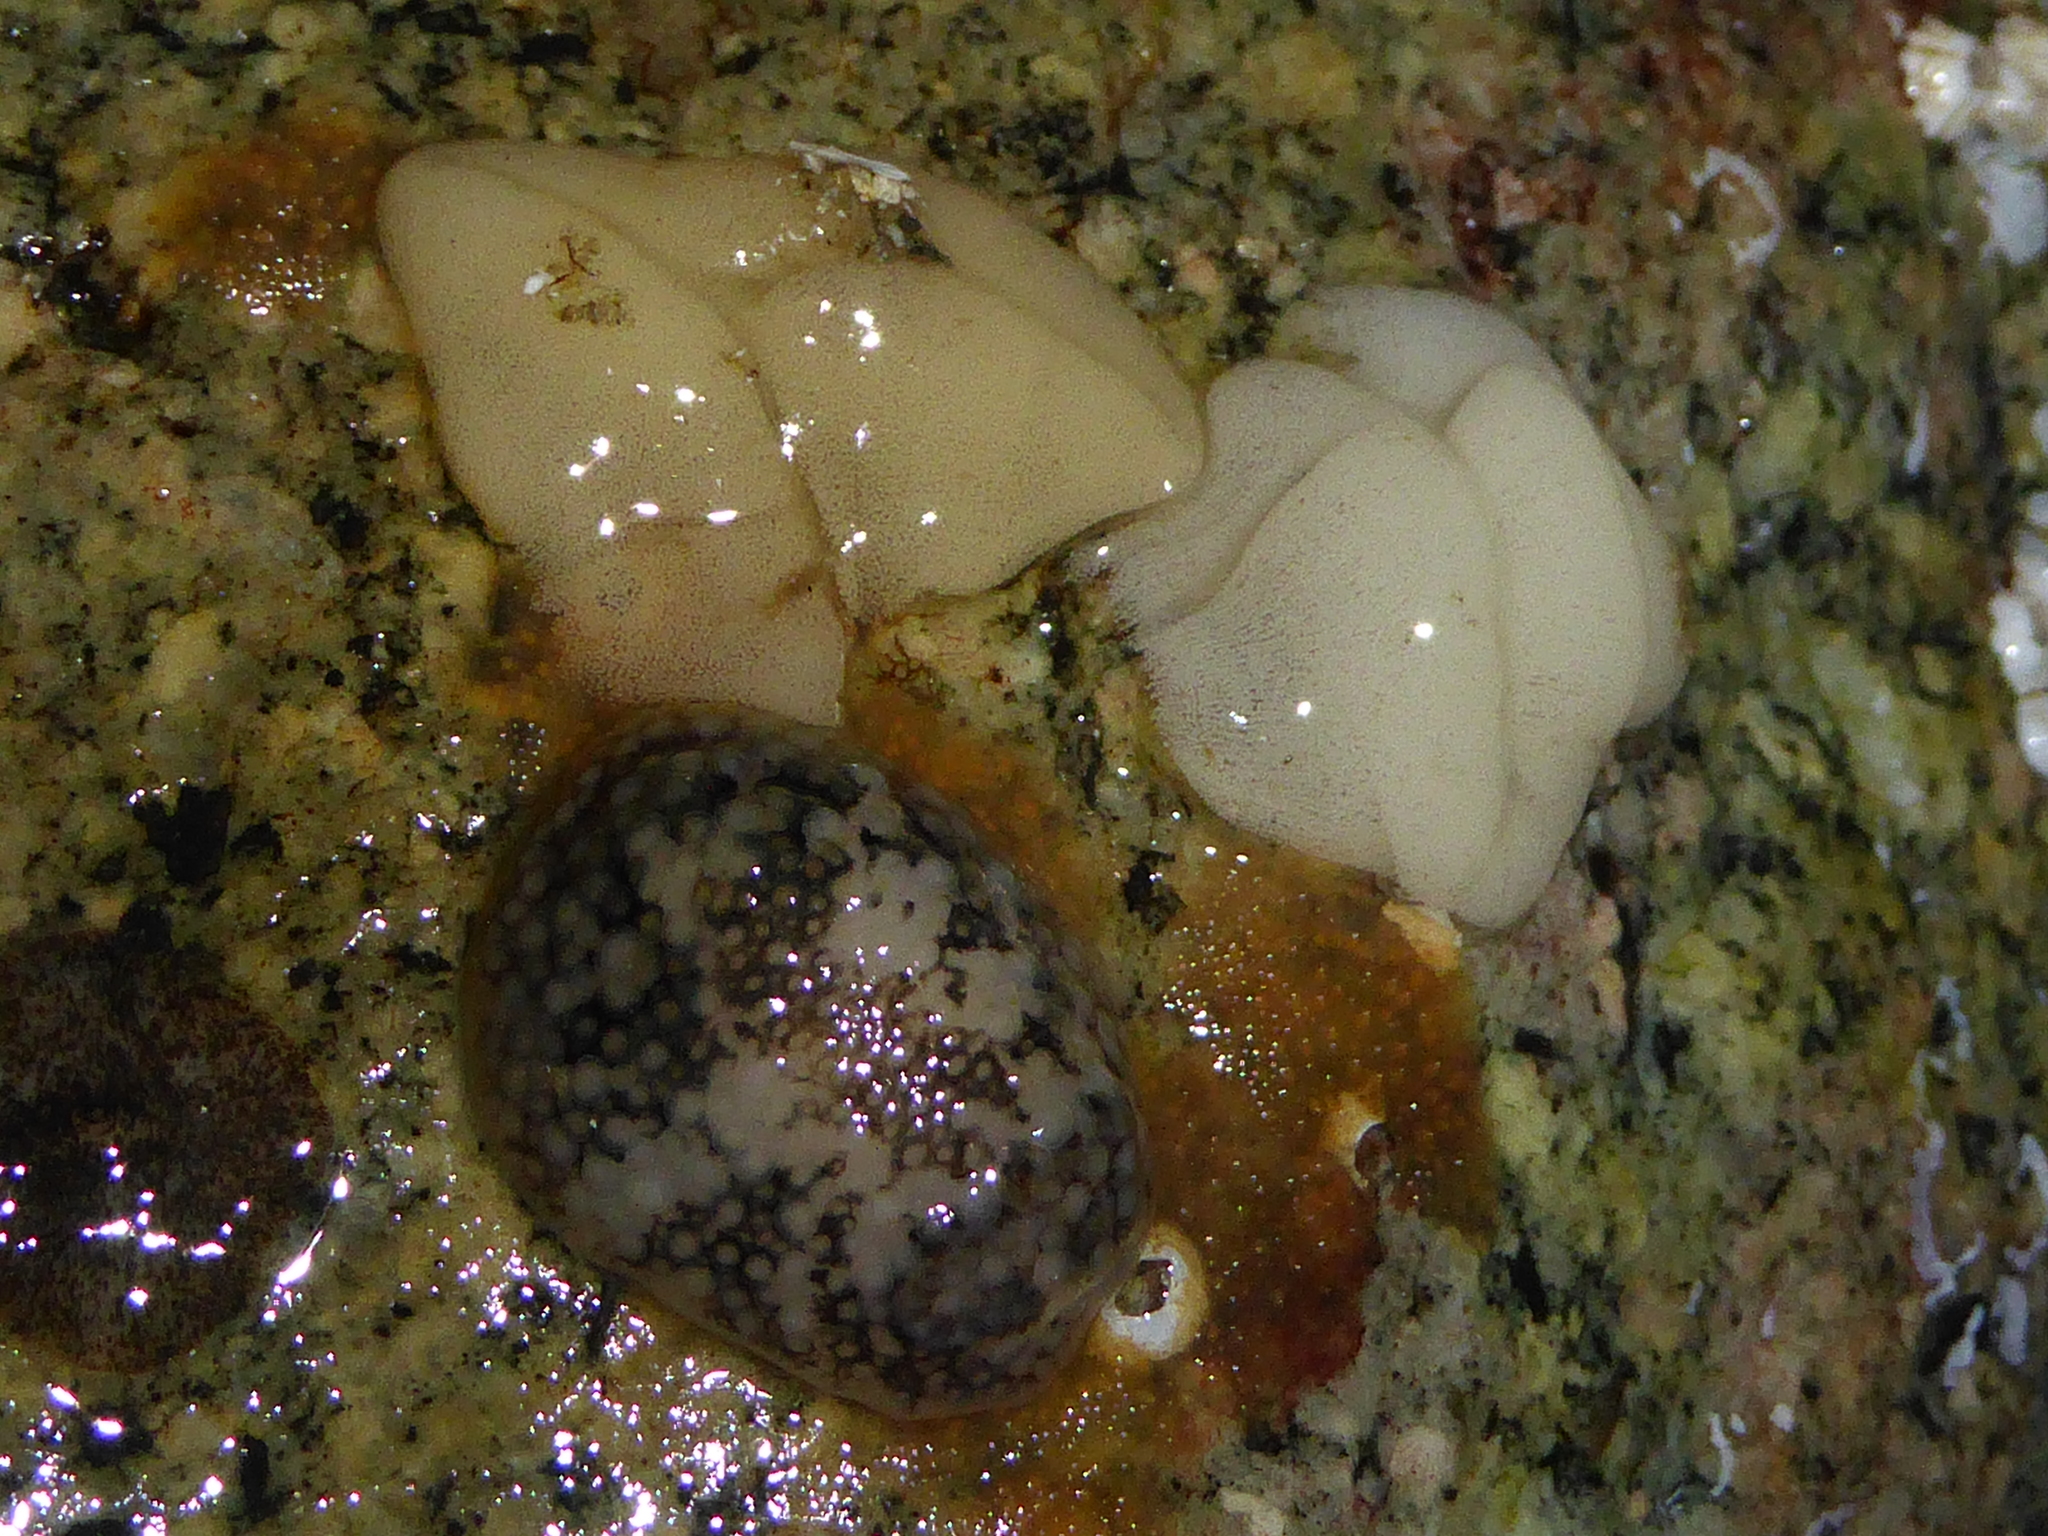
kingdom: Animalia
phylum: Mollusca
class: Gastropoda
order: Nudibranchia
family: Onchidorididae
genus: Onchidoris
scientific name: Onchidoris bilamellata
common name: Barnacle-eating onchidoris
